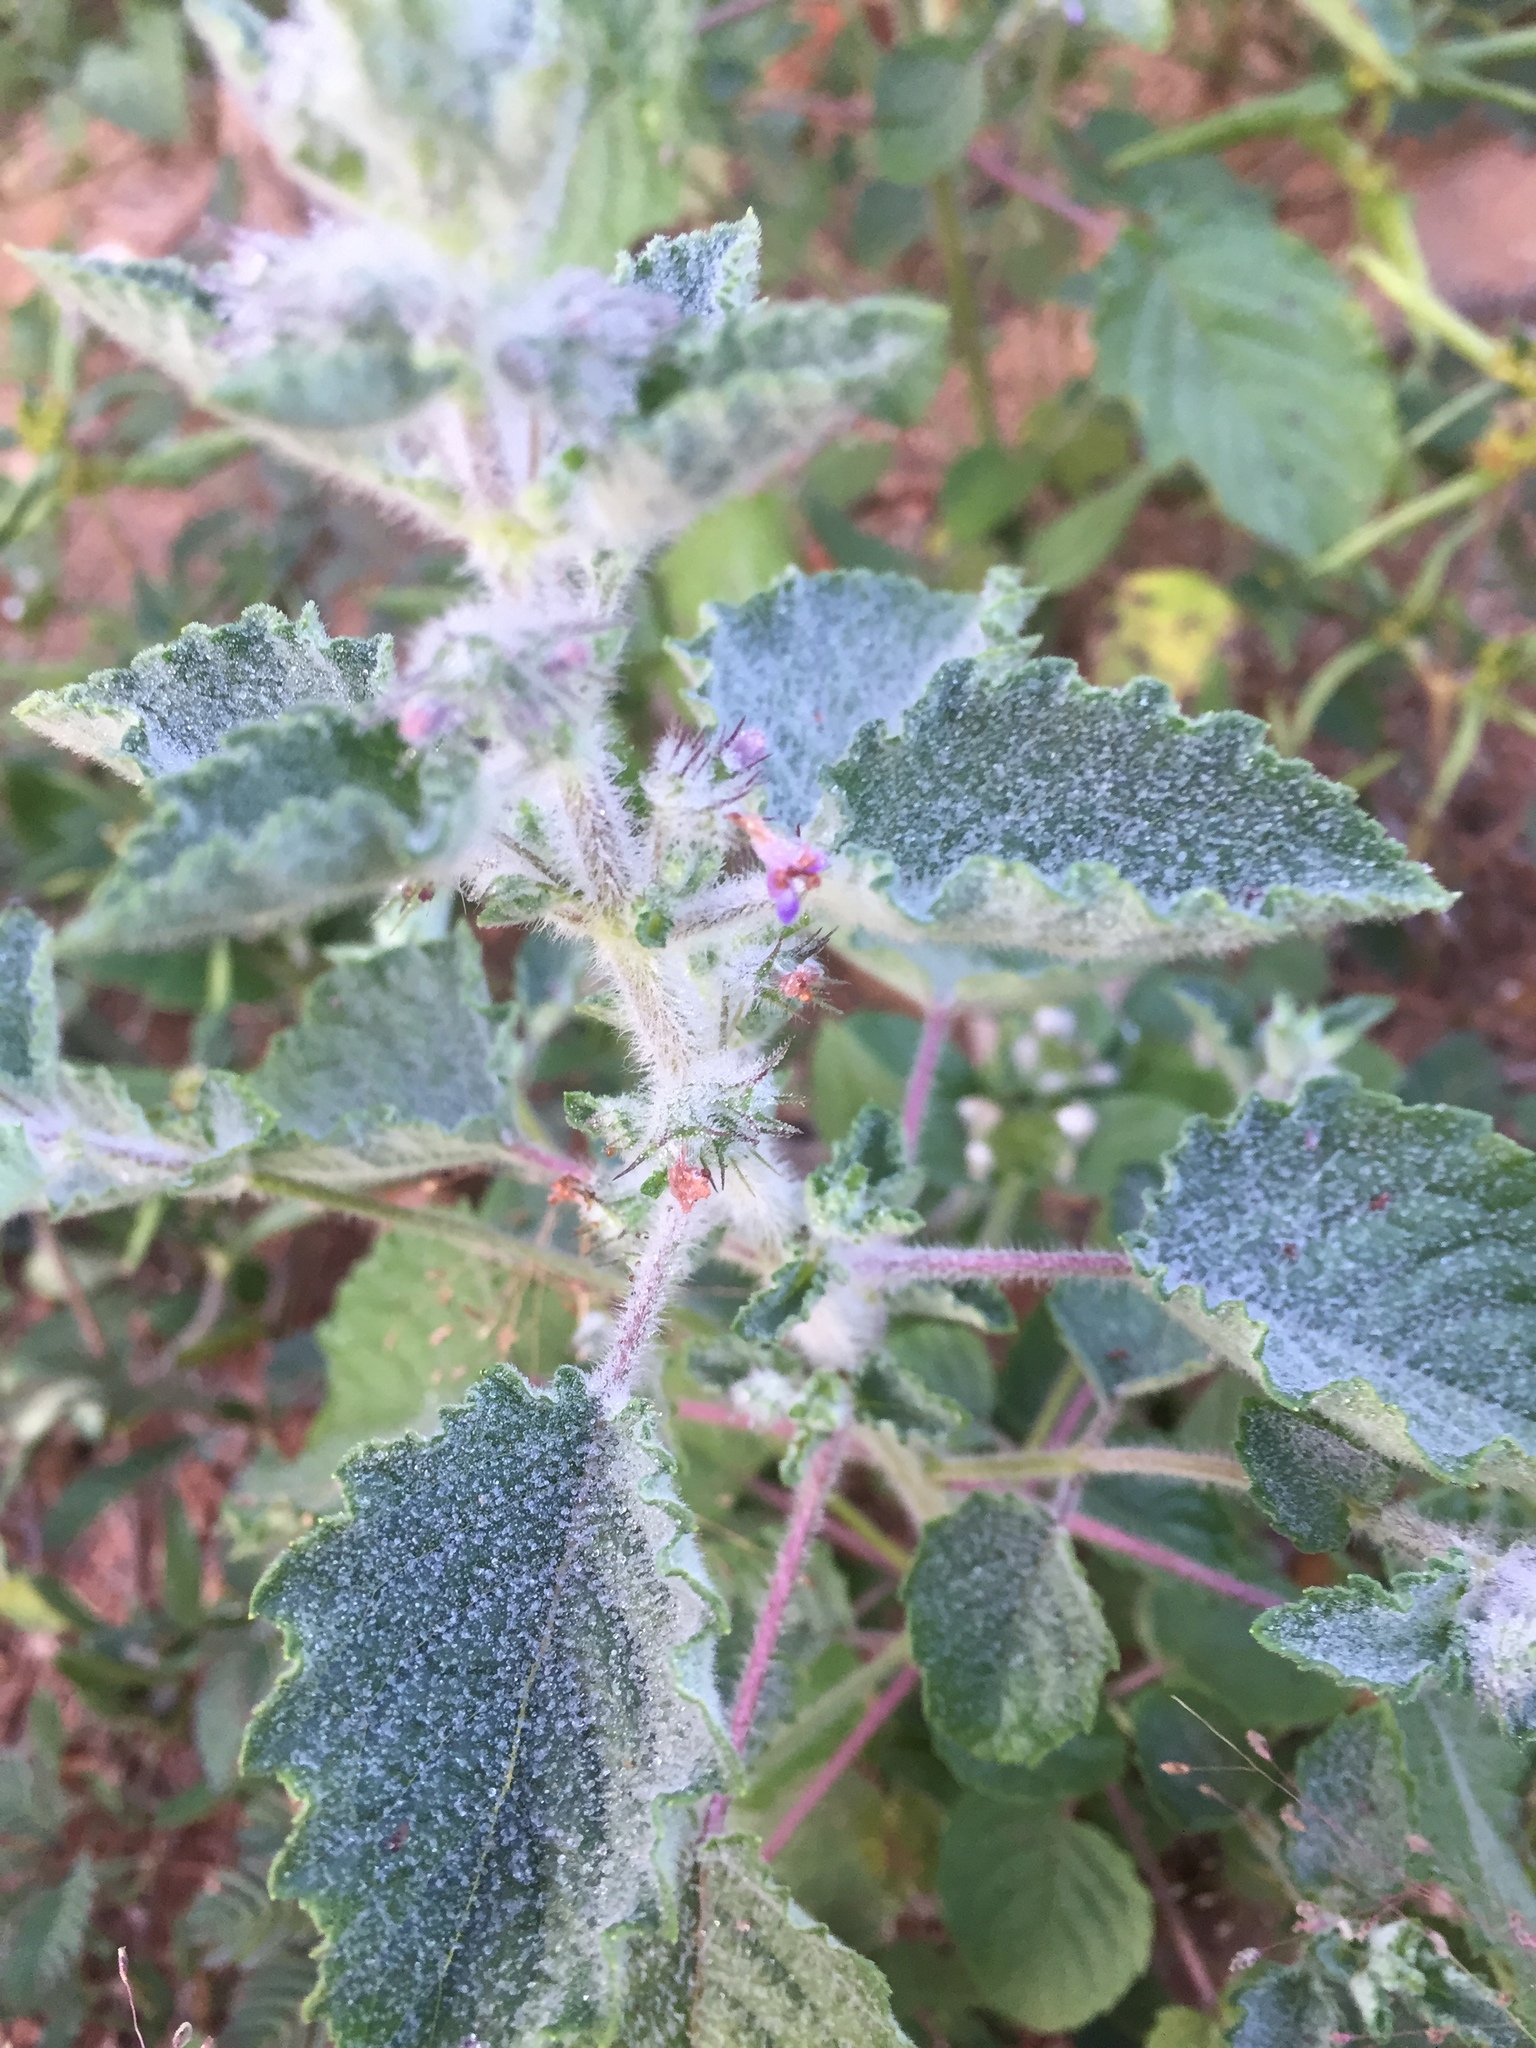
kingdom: Plantae
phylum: Tracheophyta
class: Magnoliopsida
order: Rosales
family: Urticaceae
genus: Urtica
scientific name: Urtica dioica
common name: Common nettle
